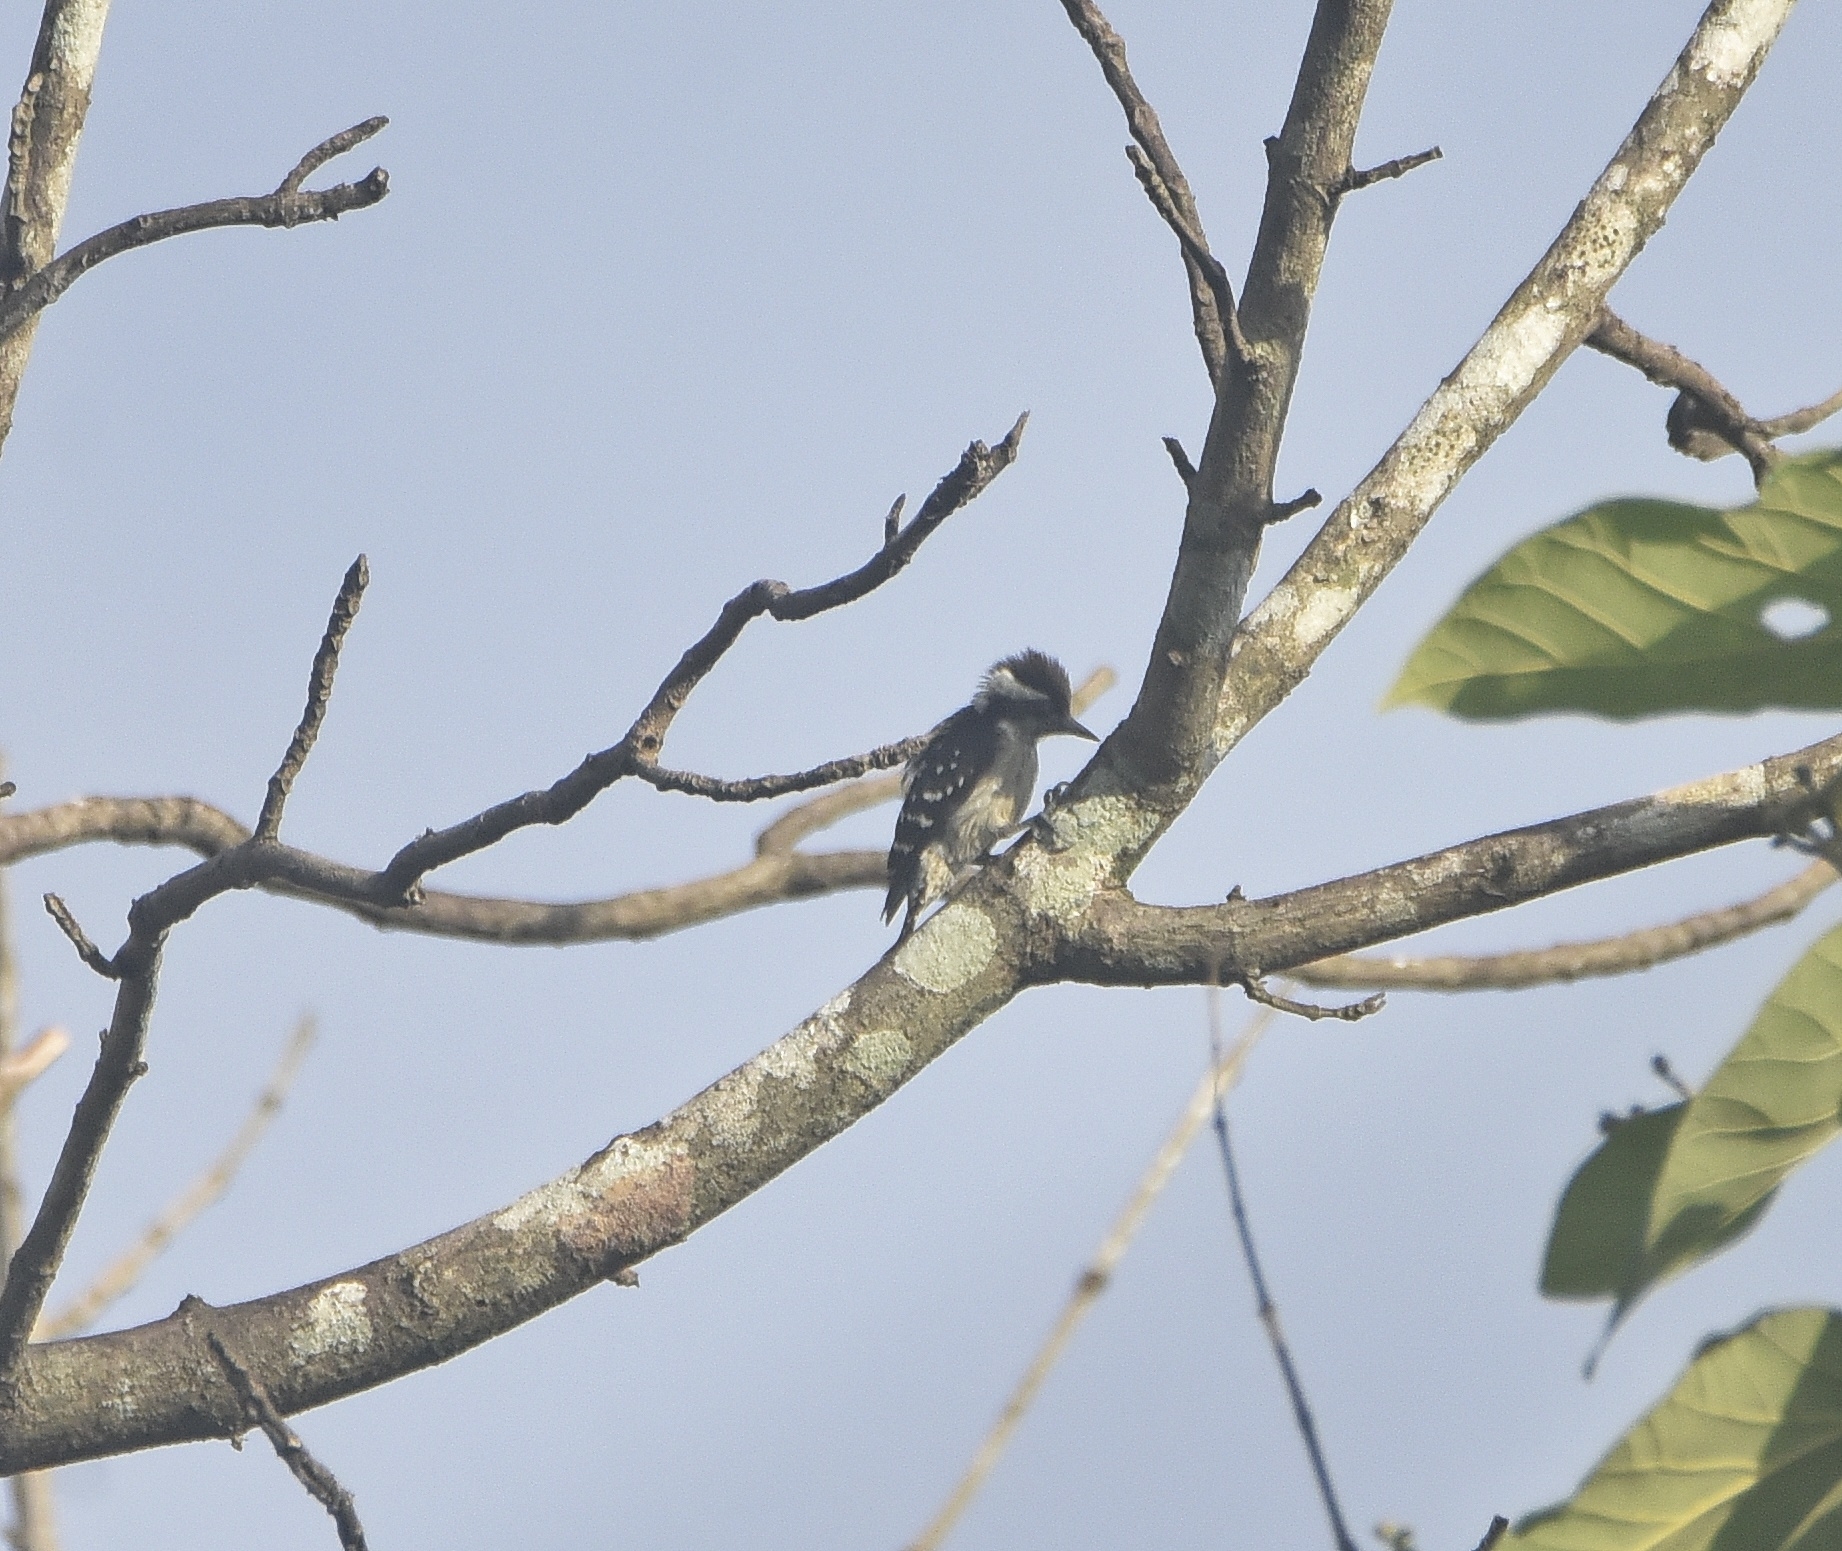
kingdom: Animalia
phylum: Chordata
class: Aves
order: Piciformes
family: Picidae
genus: Yungipicus
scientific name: Yungipicus nanus
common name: Brown-capped pygmy woodpecker
